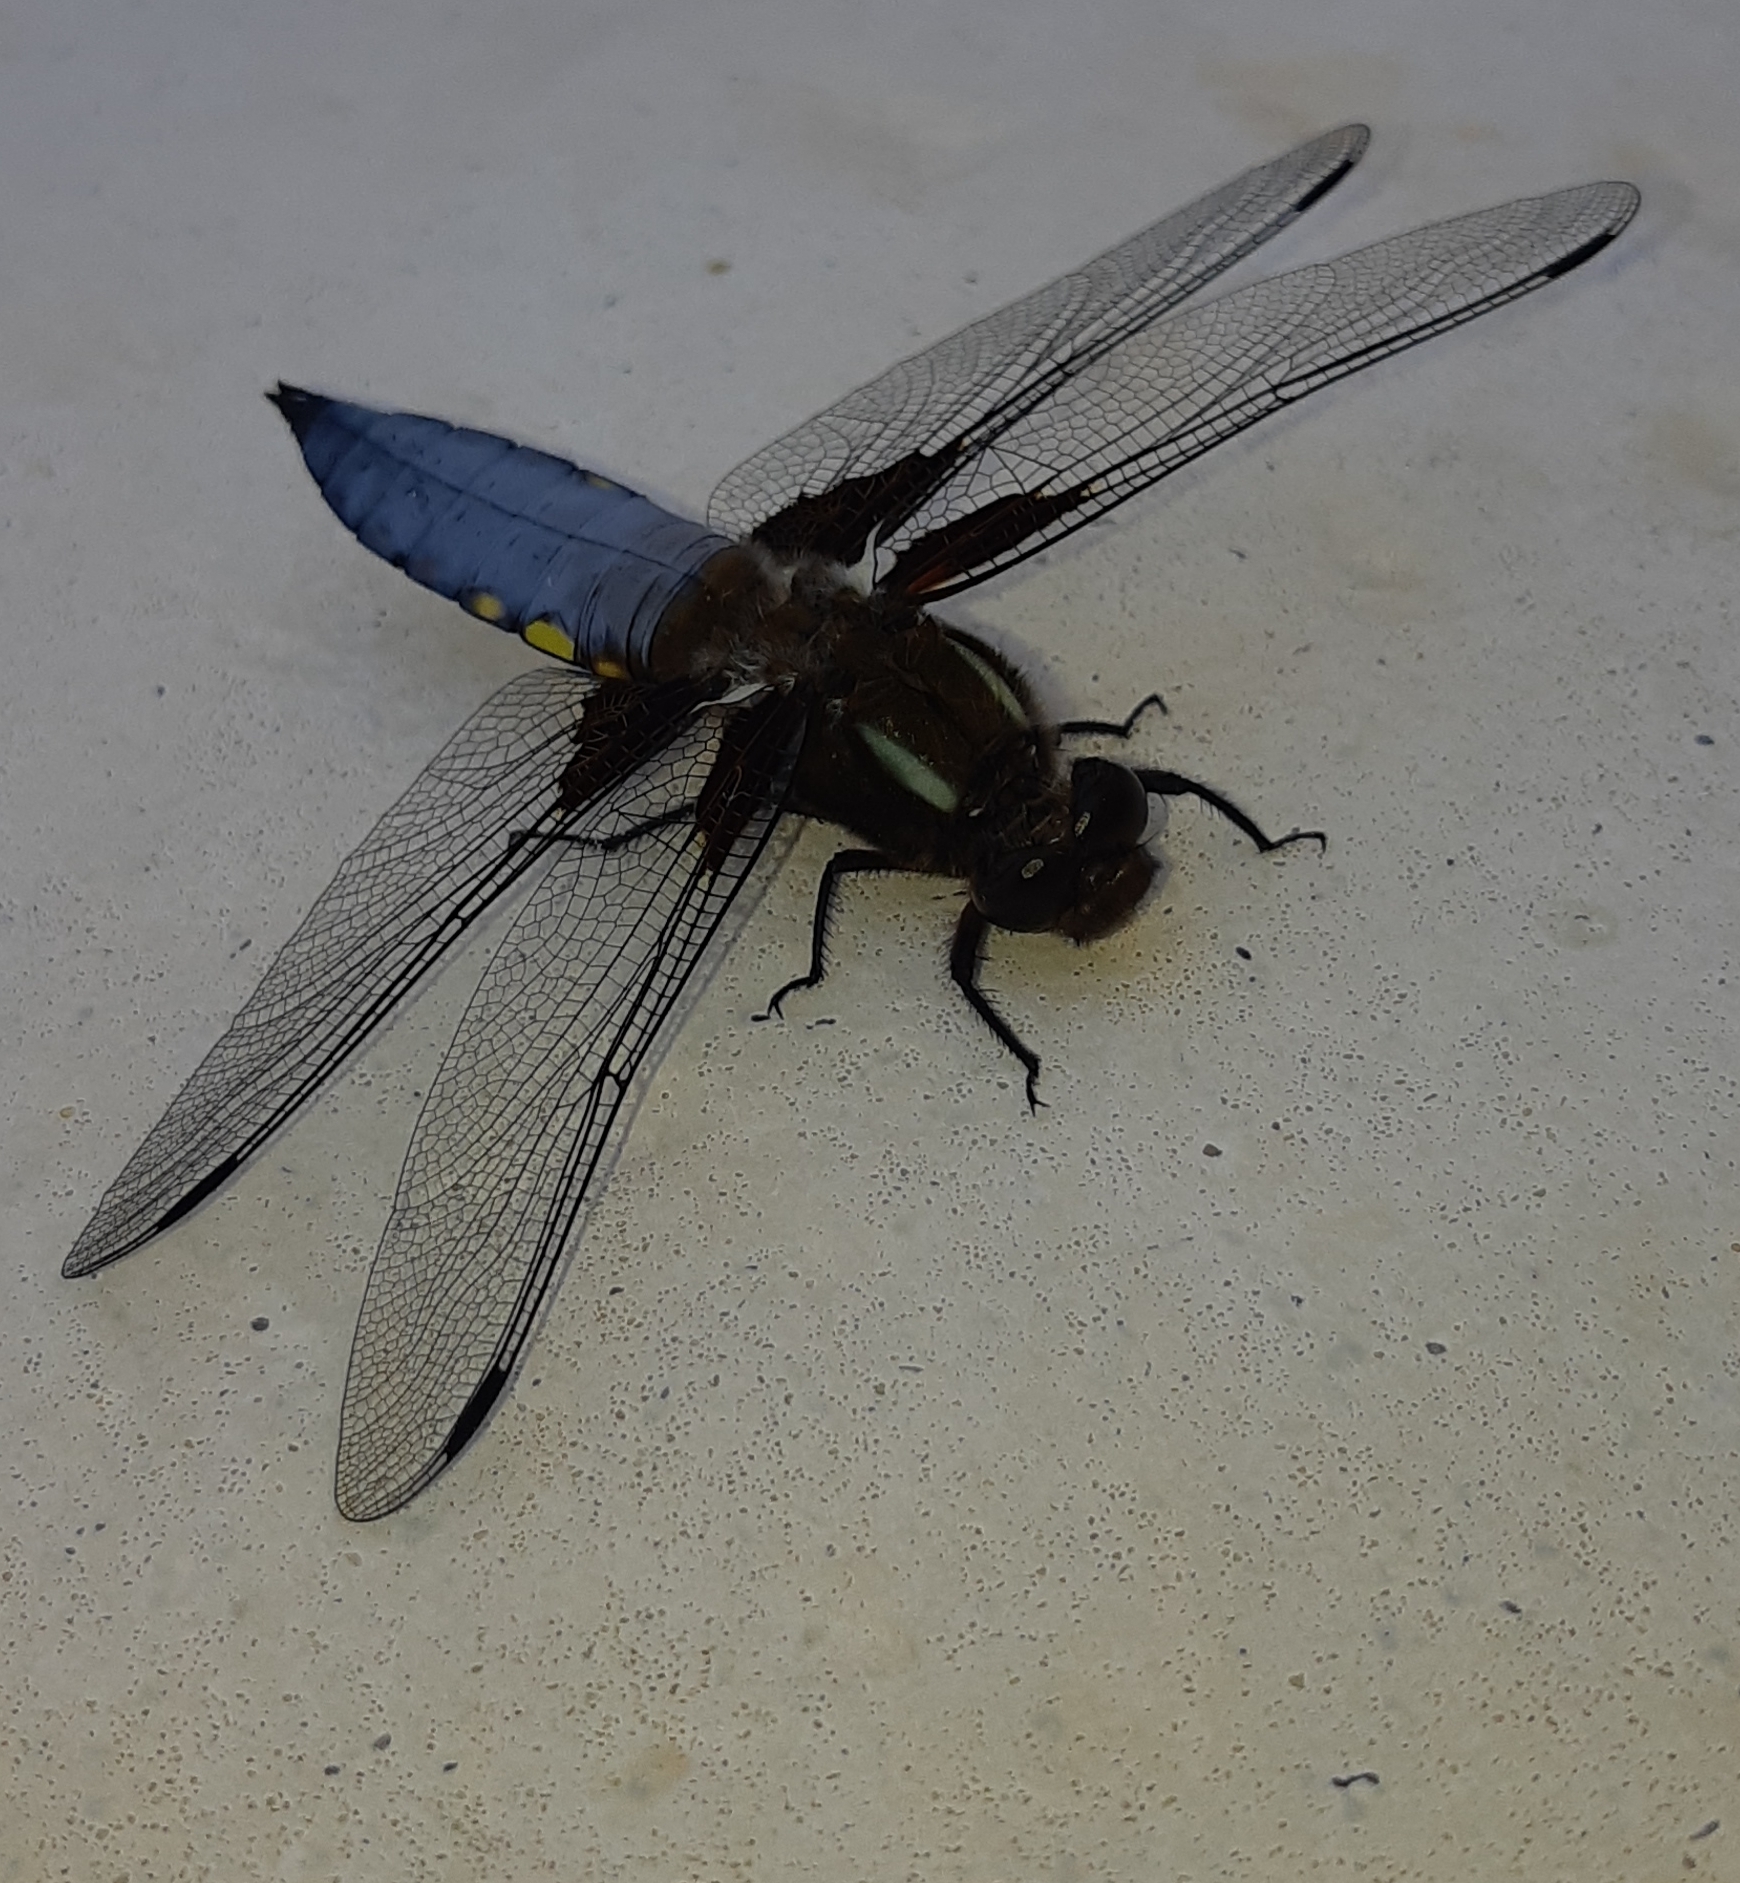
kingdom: Animalia
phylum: Arthropoda
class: Insecta
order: Odonata
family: Libellulidae
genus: Libellula
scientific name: Libellula depressa
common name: Broad-bodied chaser
